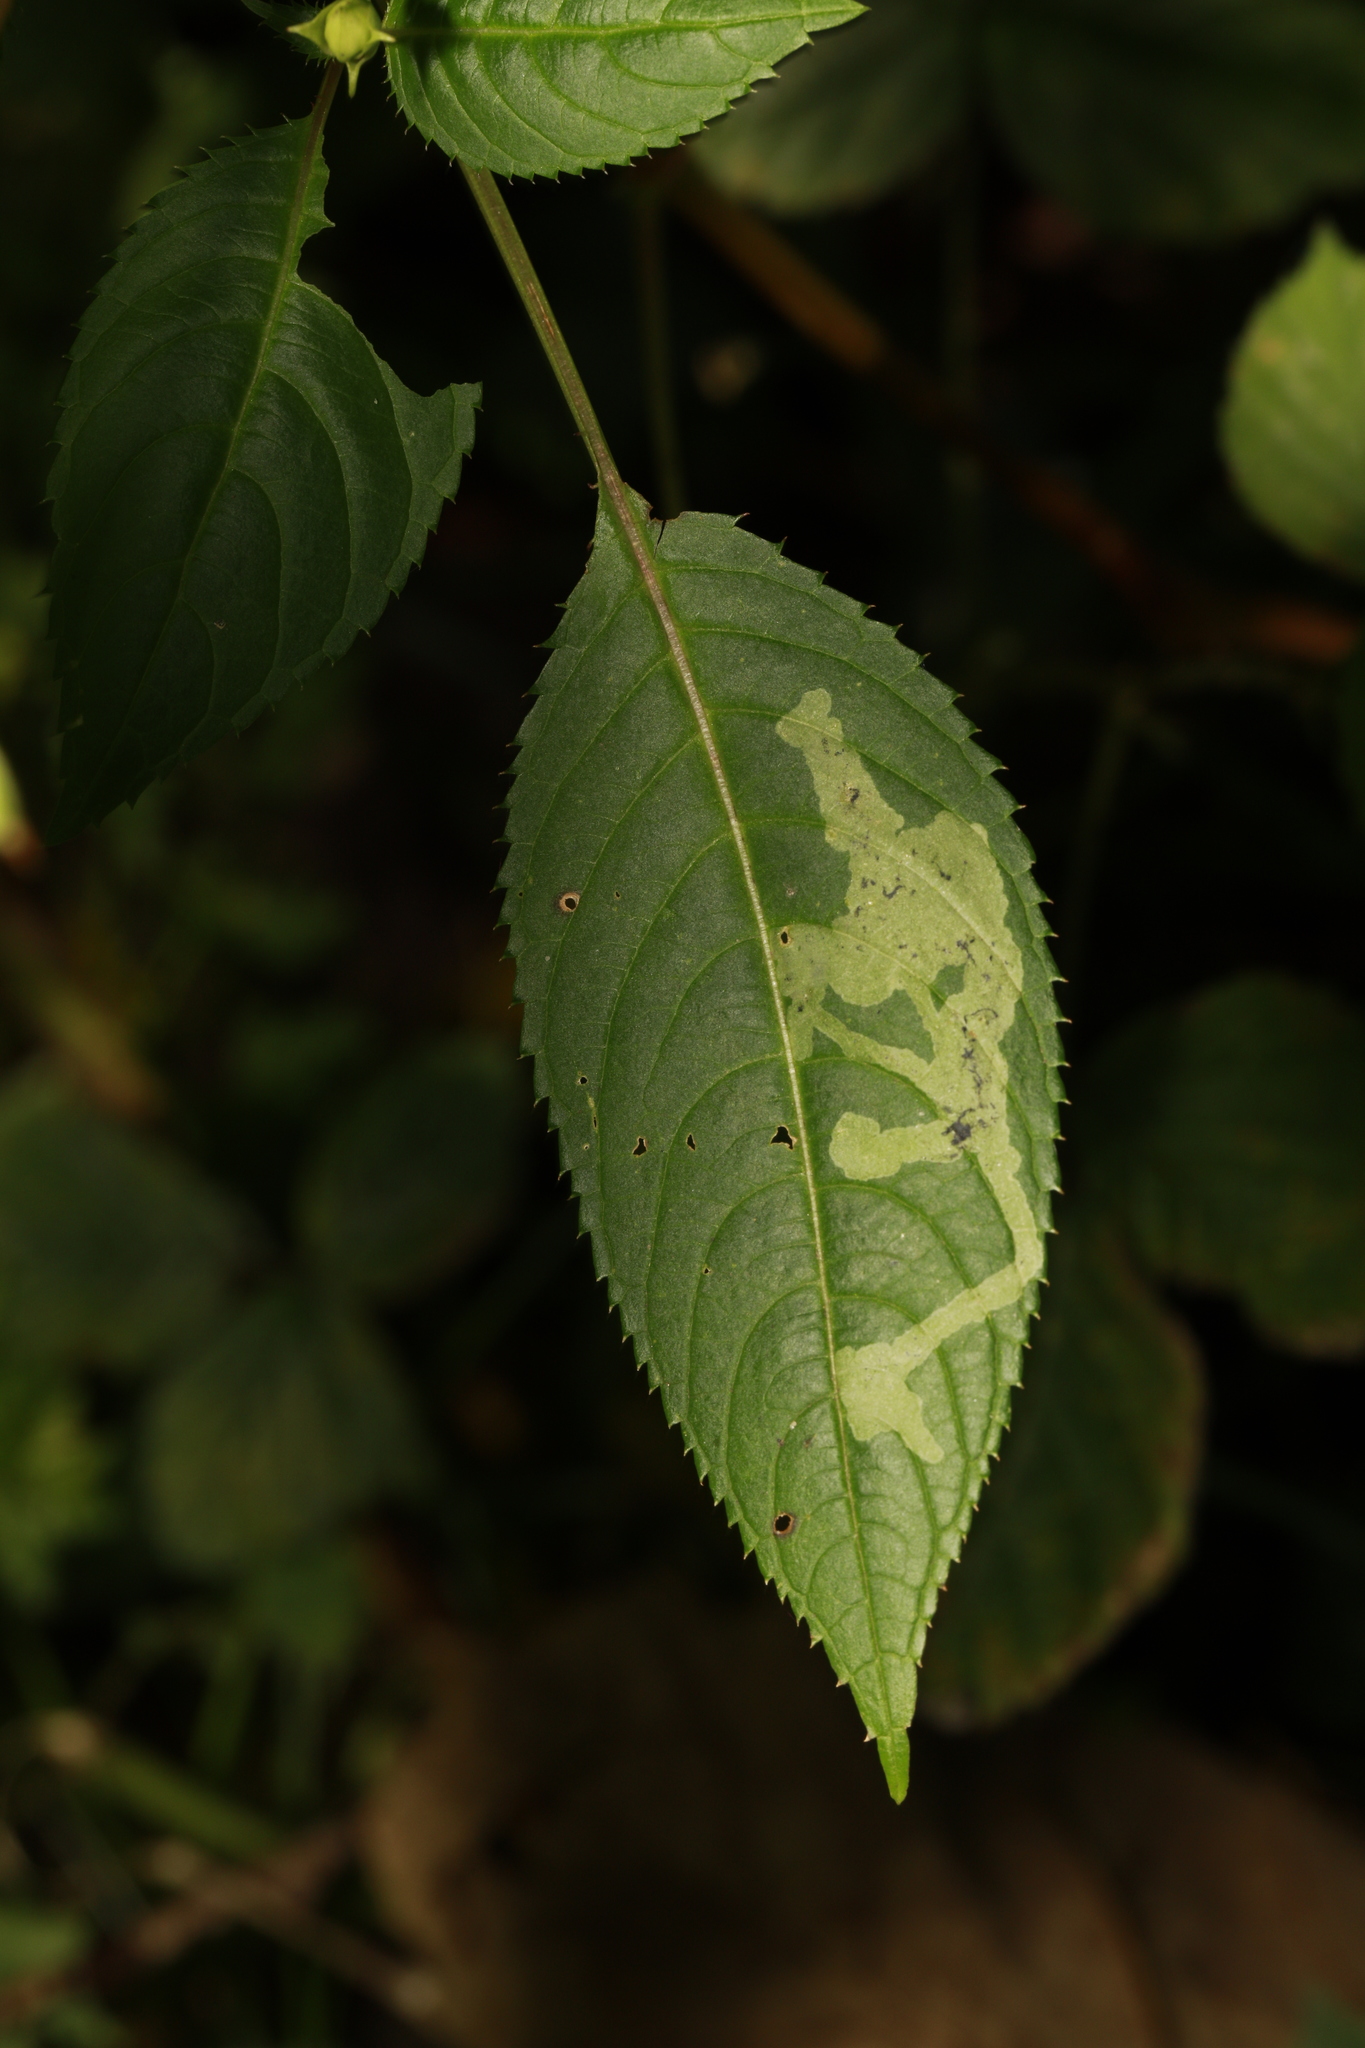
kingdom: Animalia
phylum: Arthropoda
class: Insecta
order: Diptera
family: Agromyzidae
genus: Phytoliriomyza
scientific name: Phytoliriomyza melampyga
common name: Jewelweed leaf-miner fly
